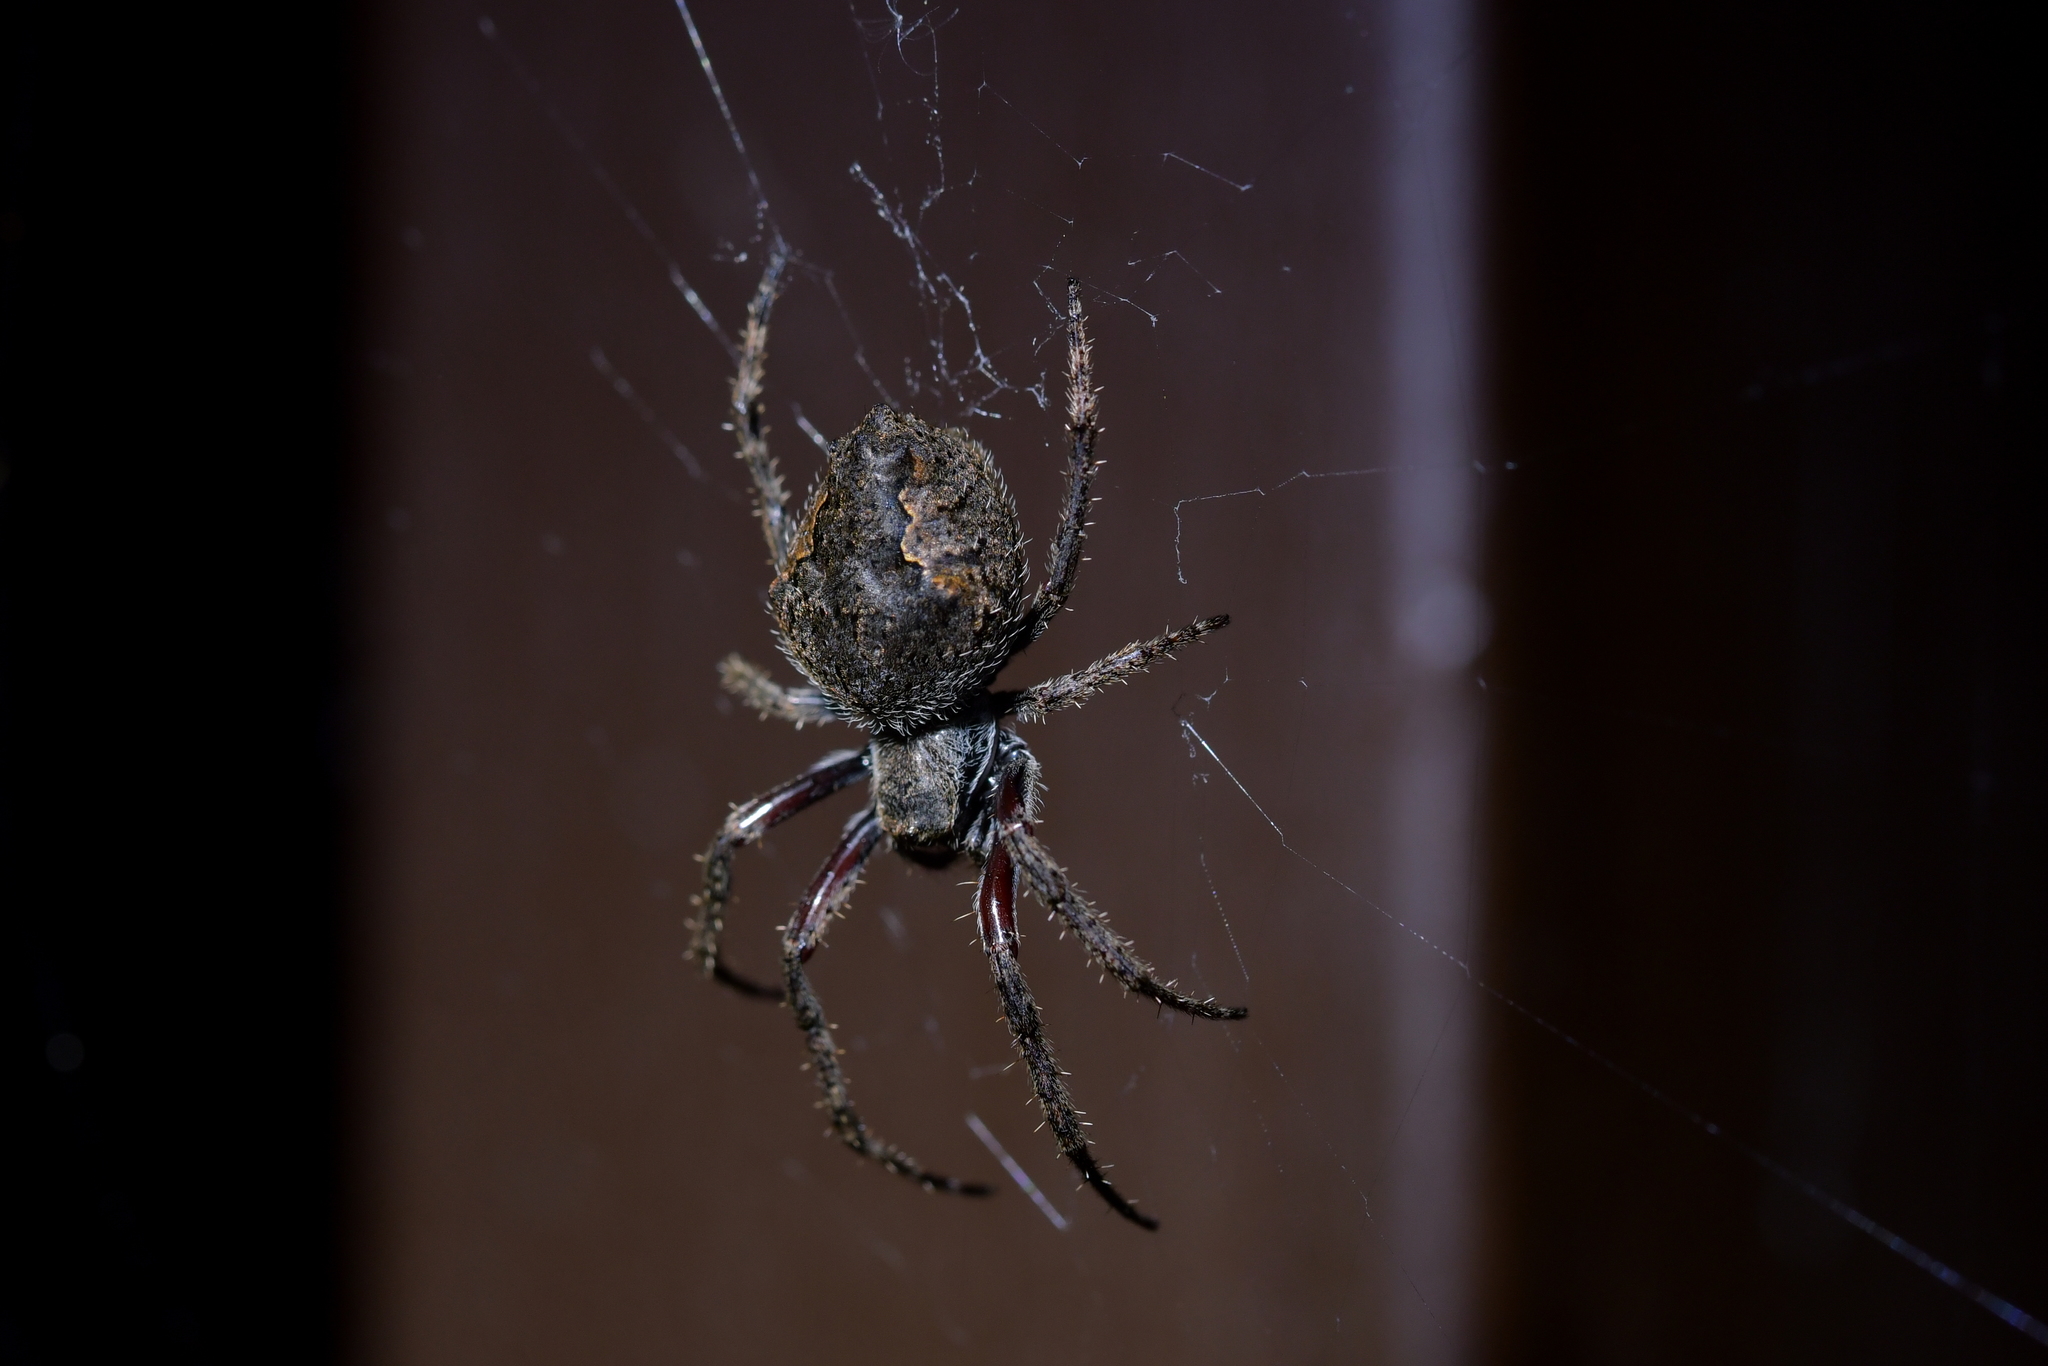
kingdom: Animalia
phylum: Arthropoda
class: Arachnida
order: Araneae
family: Araneidae
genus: Eriophora
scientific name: Eriophora pustulosa
